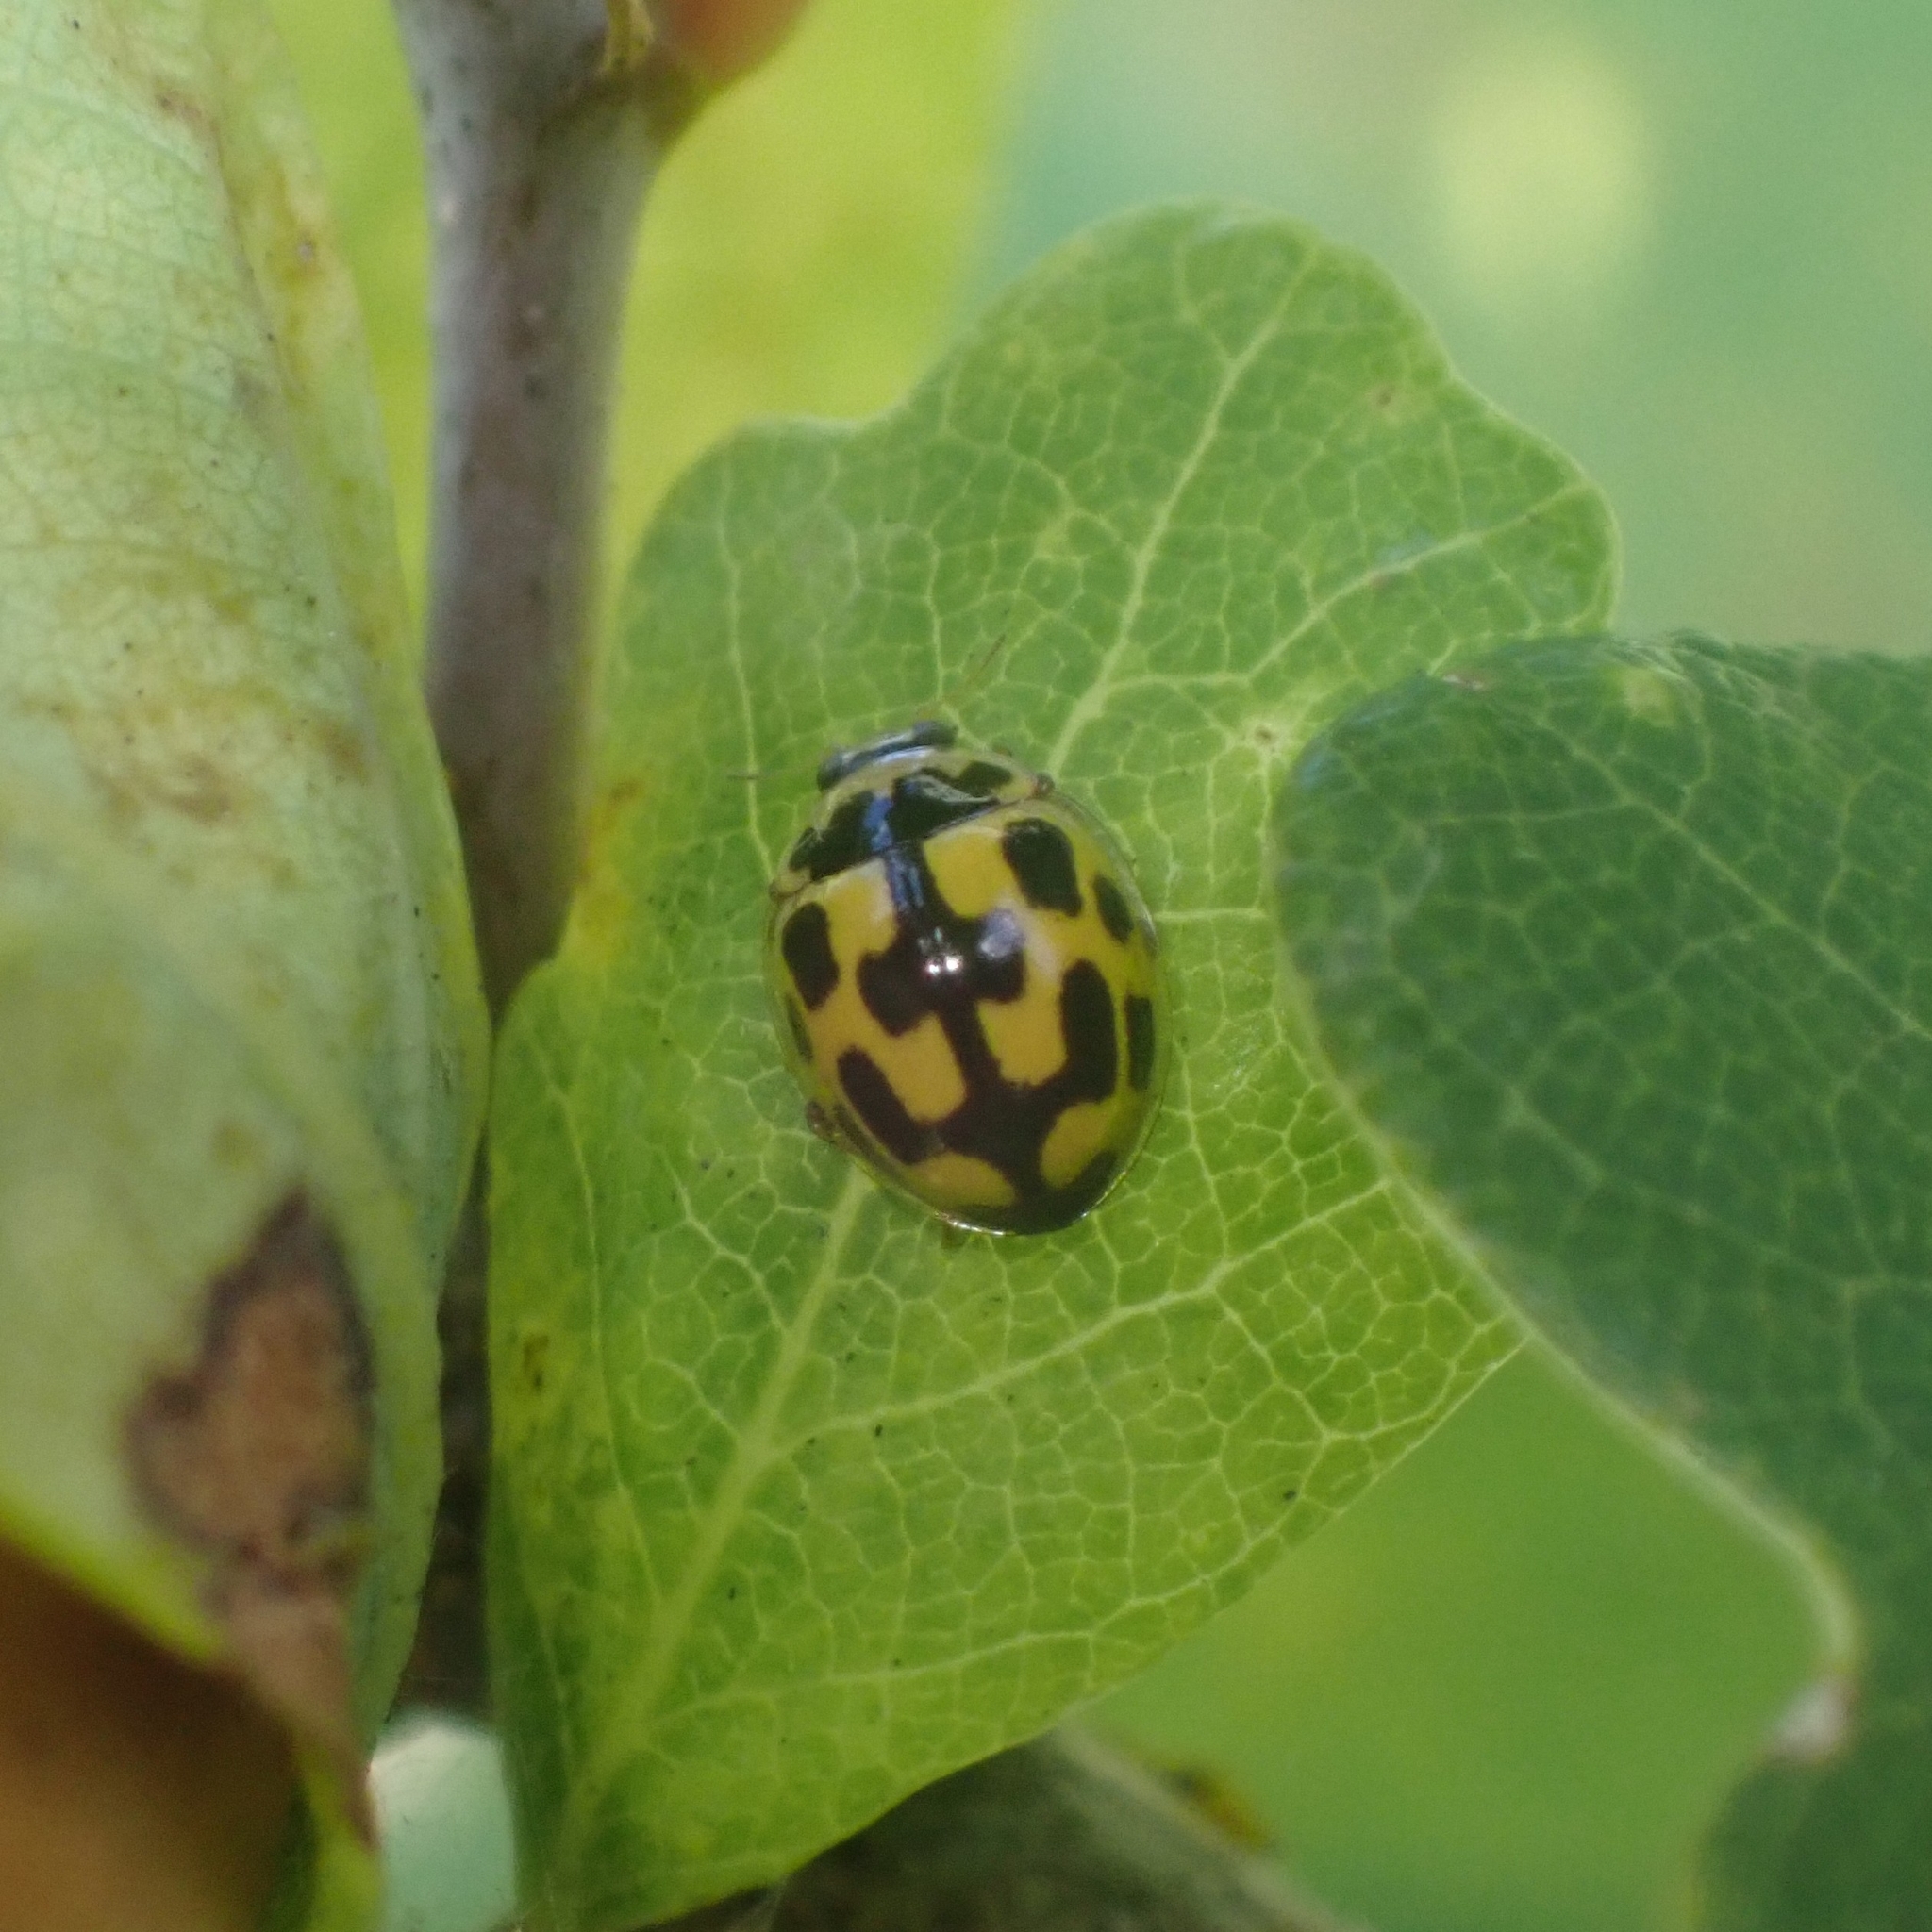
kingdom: Animalia
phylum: Arthropoda
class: Insecta
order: Coleoptera
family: Coccinellidae
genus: Propylaea
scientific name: Propylaea quatuordecimpunctata
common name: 14-spotted ladybird beetle
